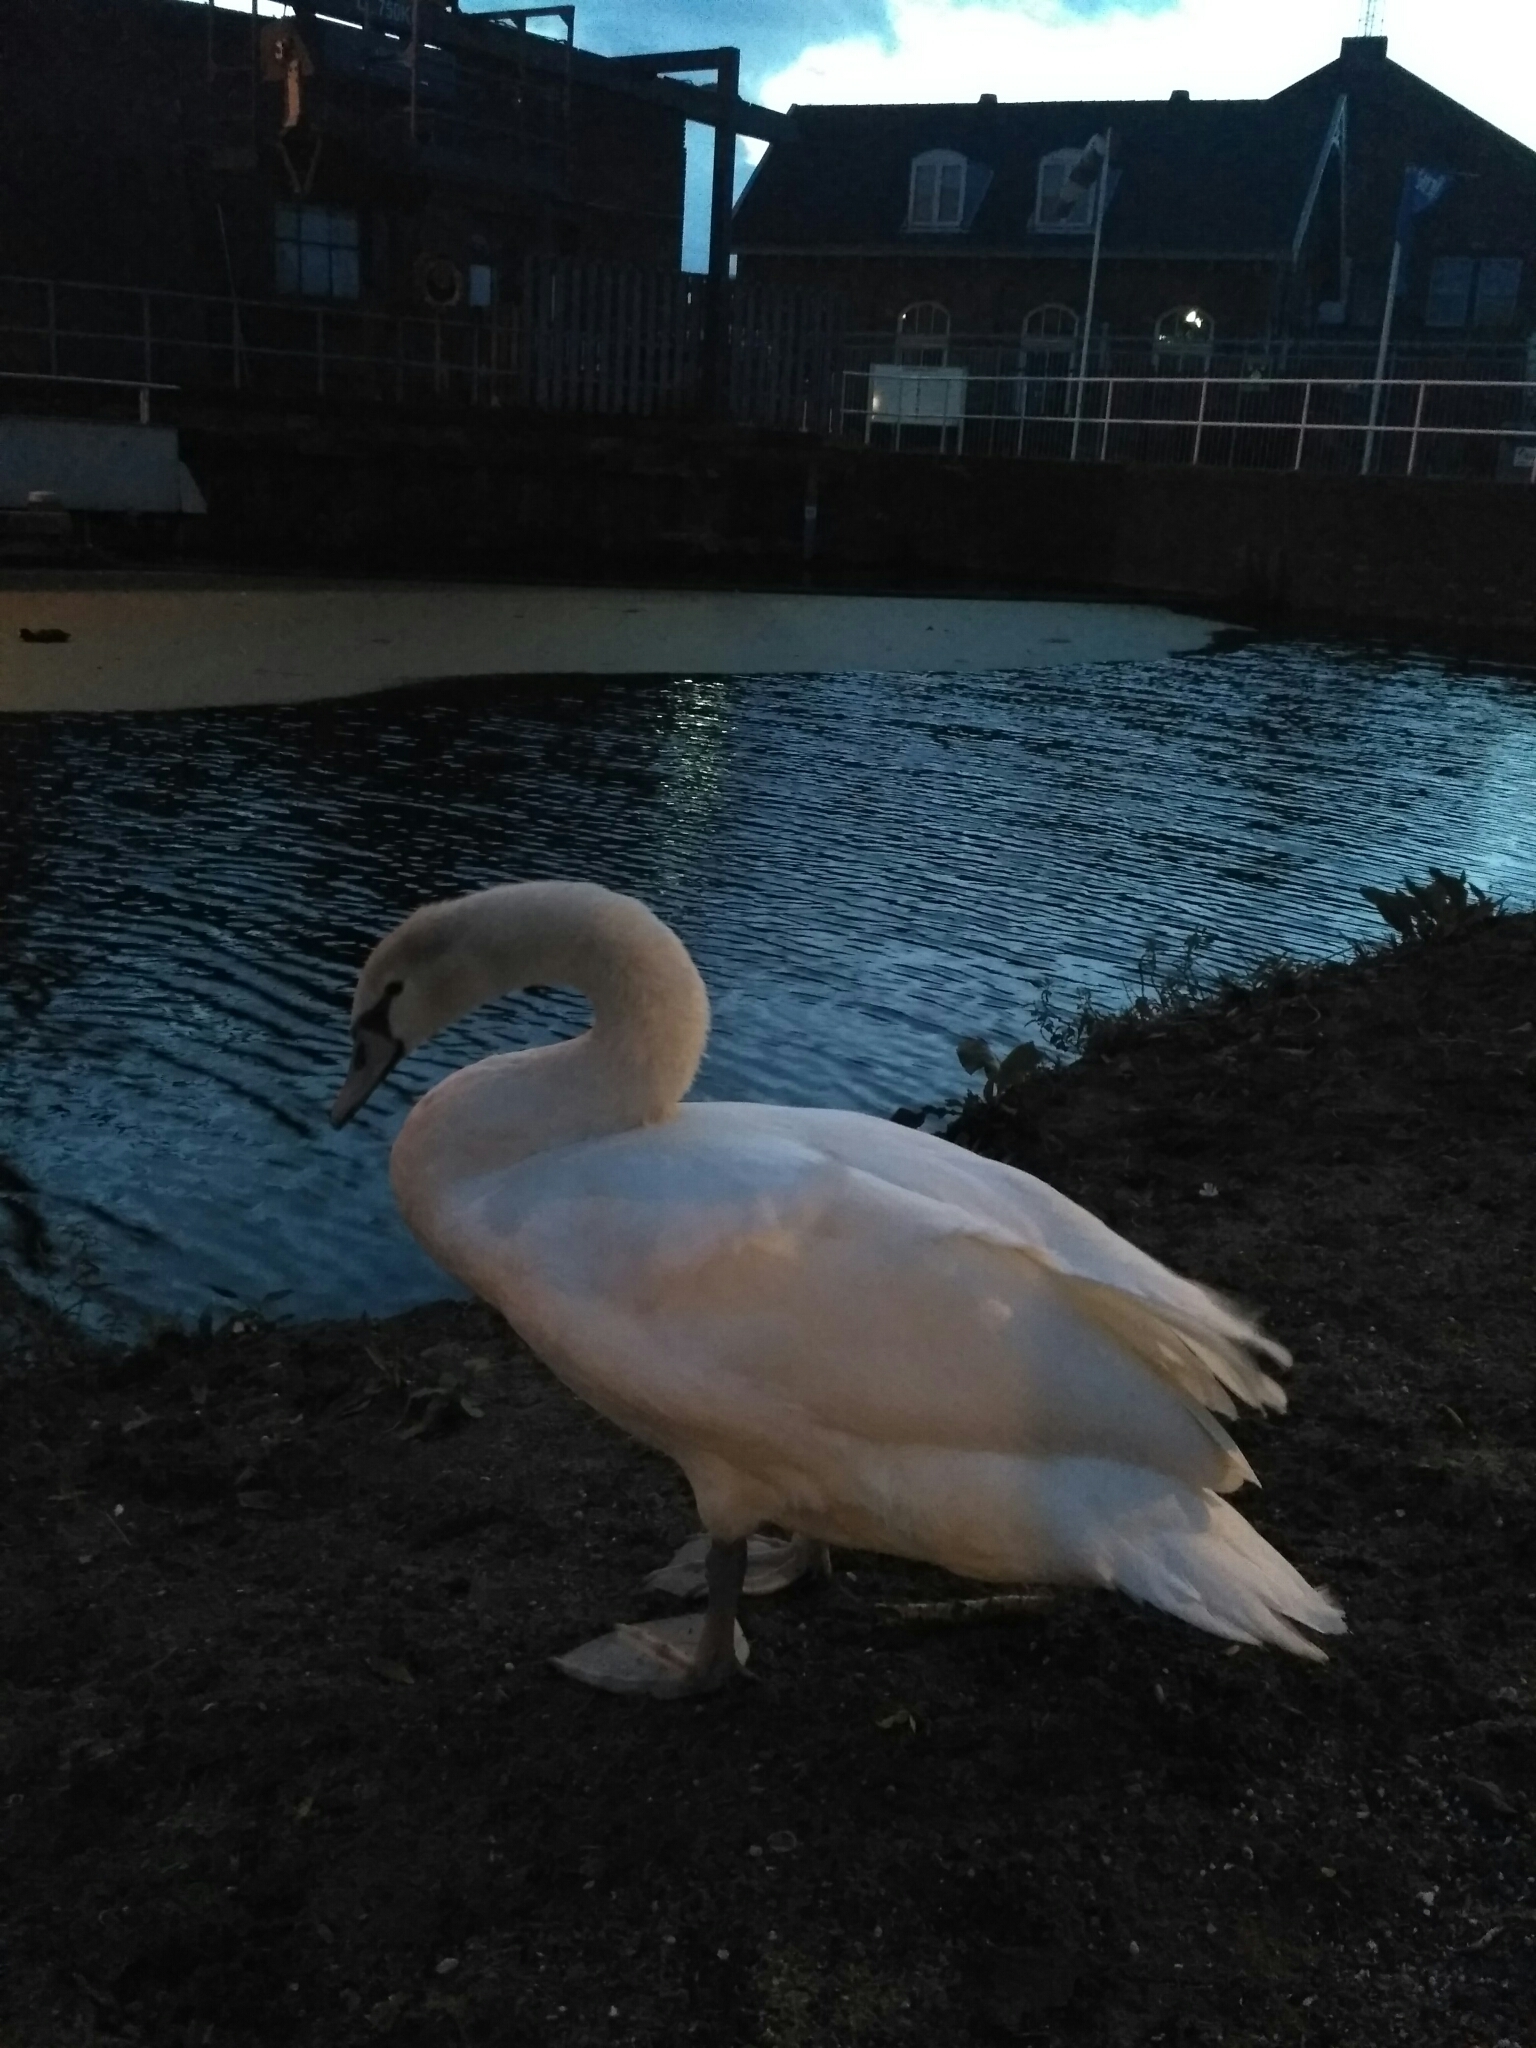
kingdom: Animalia
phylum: Chordata
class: Aves
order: Anseriformes
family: Anatidae
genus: Cygnus
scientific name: Cygnus olor
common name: Mute swan
